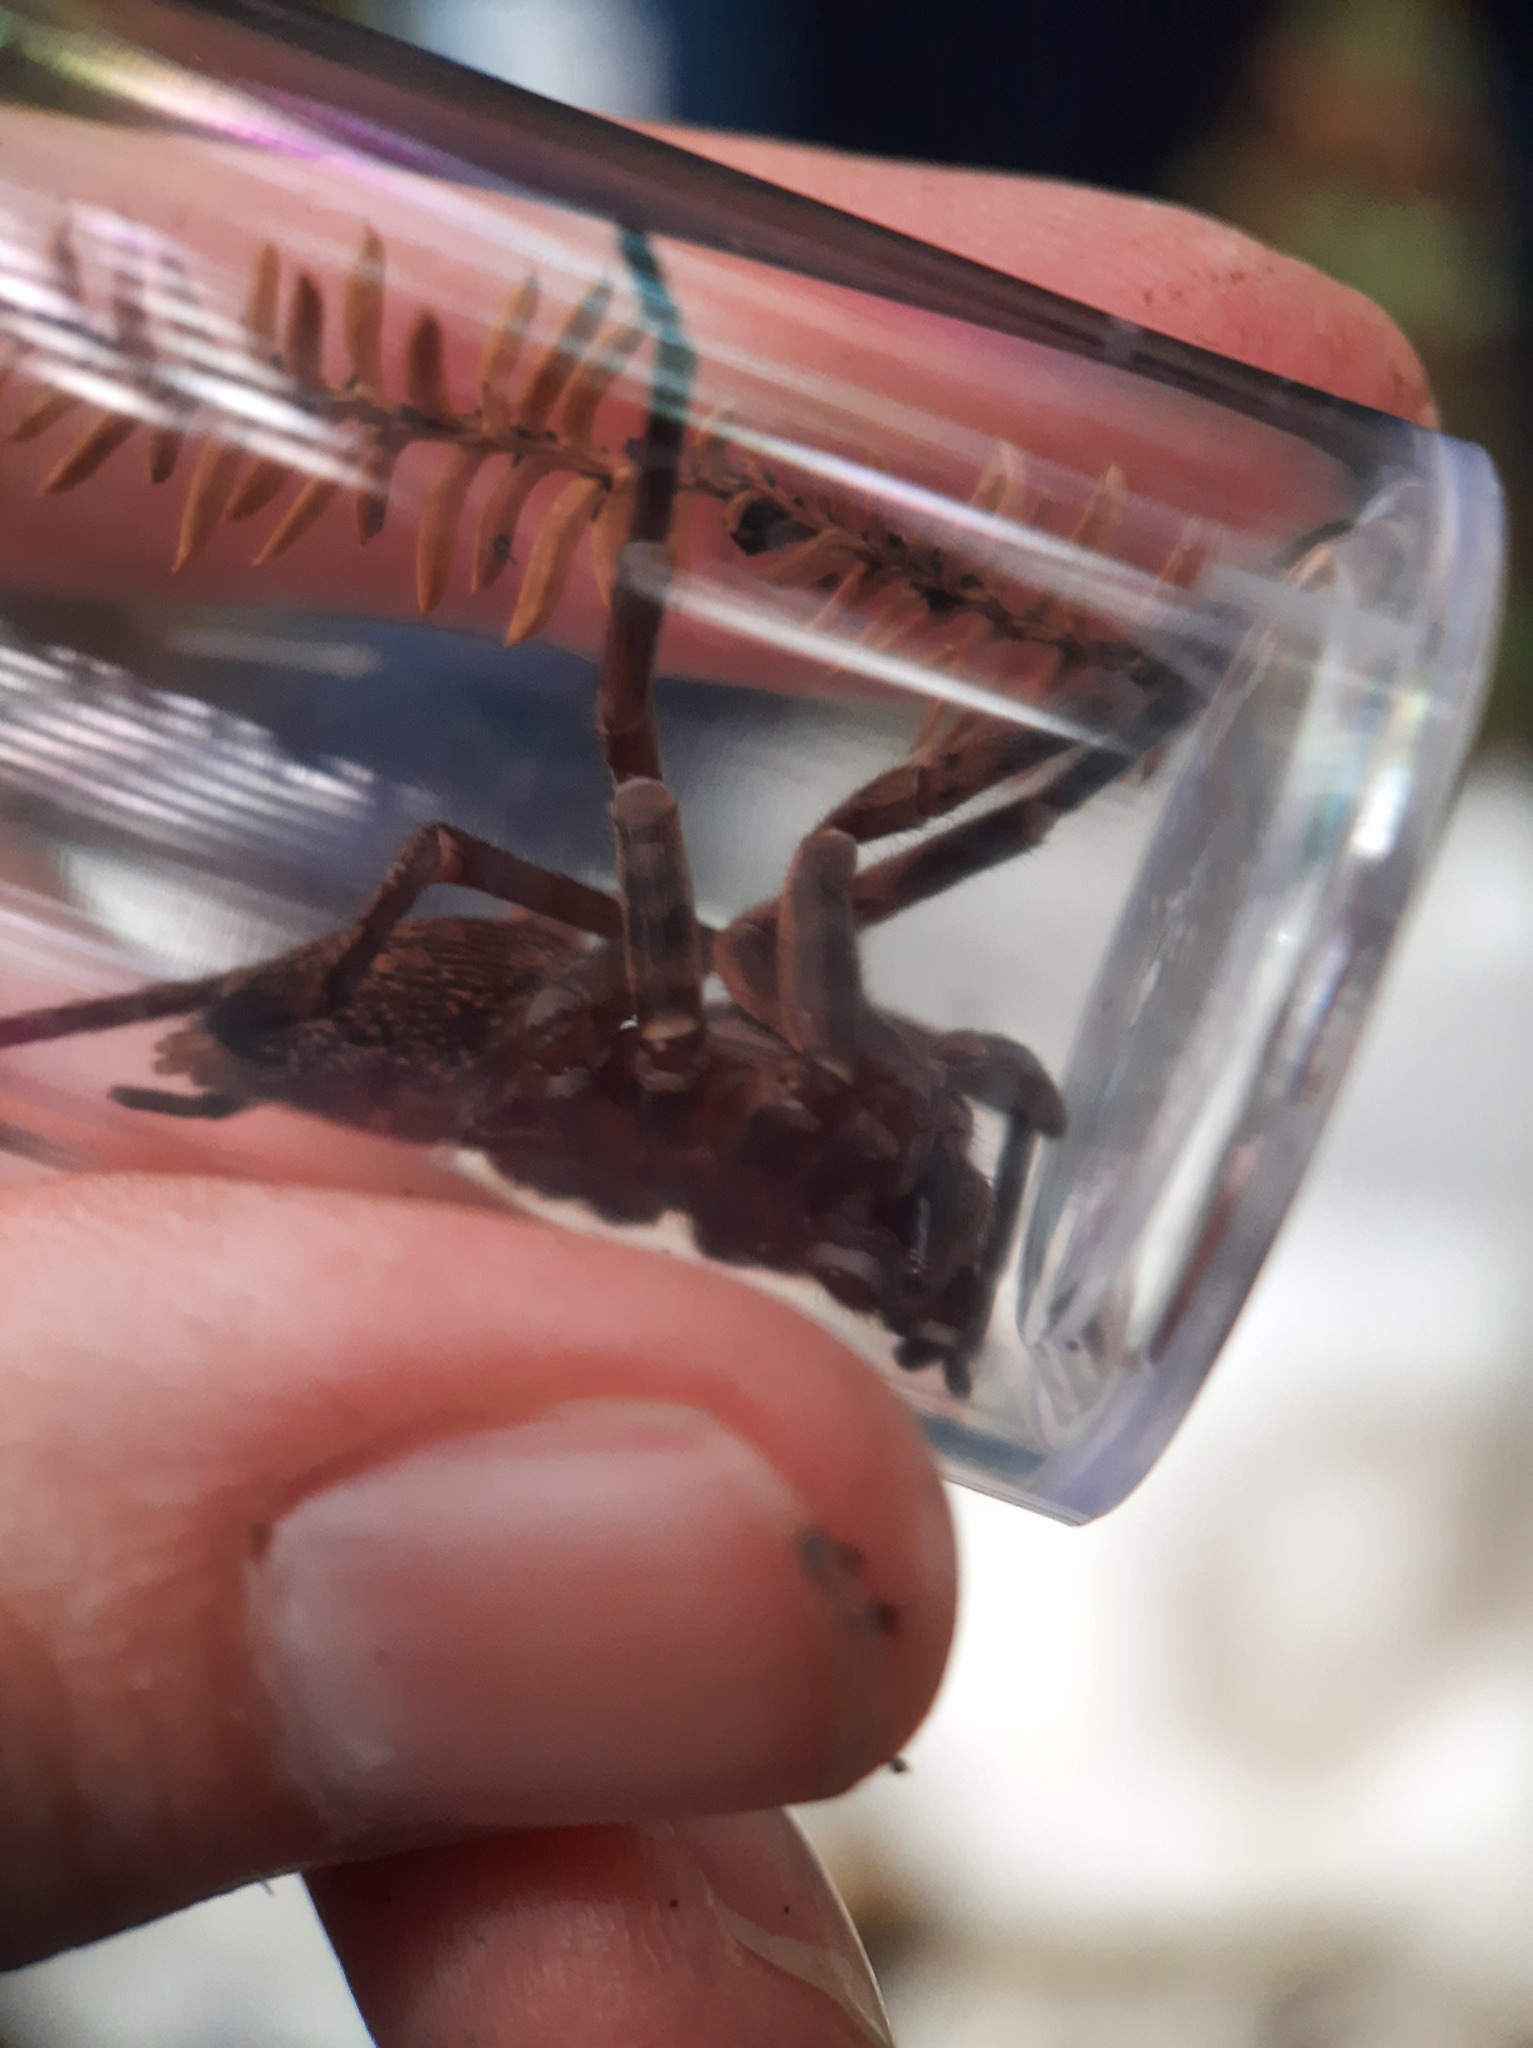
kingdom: Animalia
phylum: Arthropoda
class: Arachnida
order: Araneae
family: Zoropsidae
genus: Uliodon
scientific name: Uliodon
